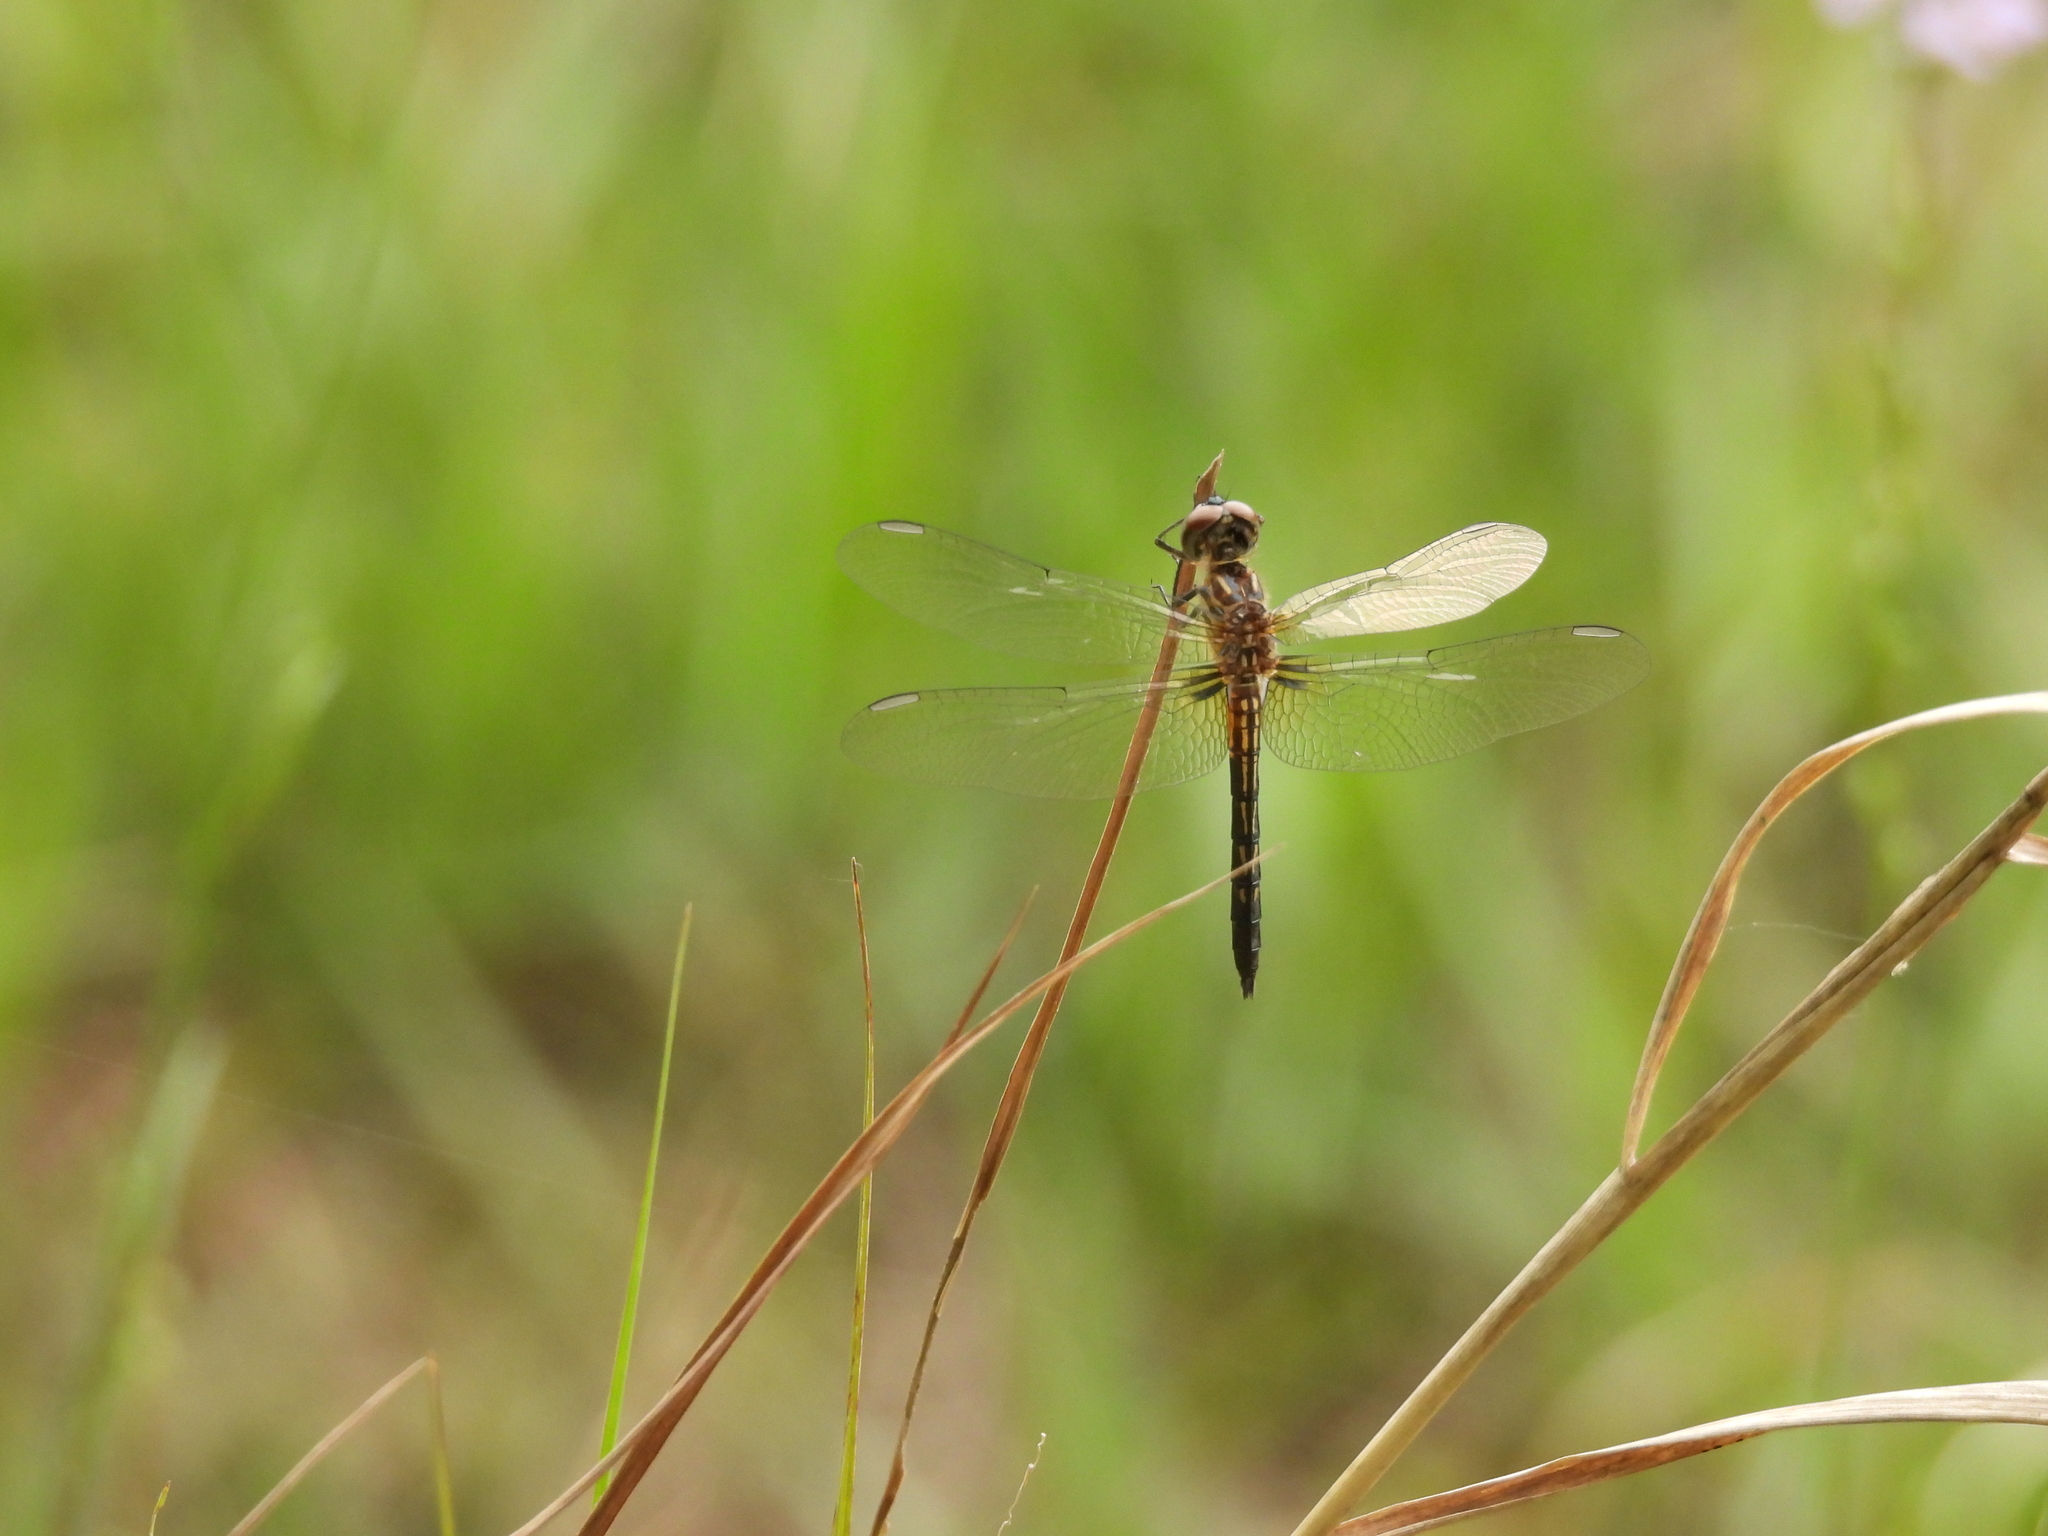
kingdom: Animalia
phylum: Arthropoda
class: Insecta
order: Odonata
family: Libellulidae
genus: Pachydiplax
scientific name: Pachydiplax longipennis
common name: Blue dasher
